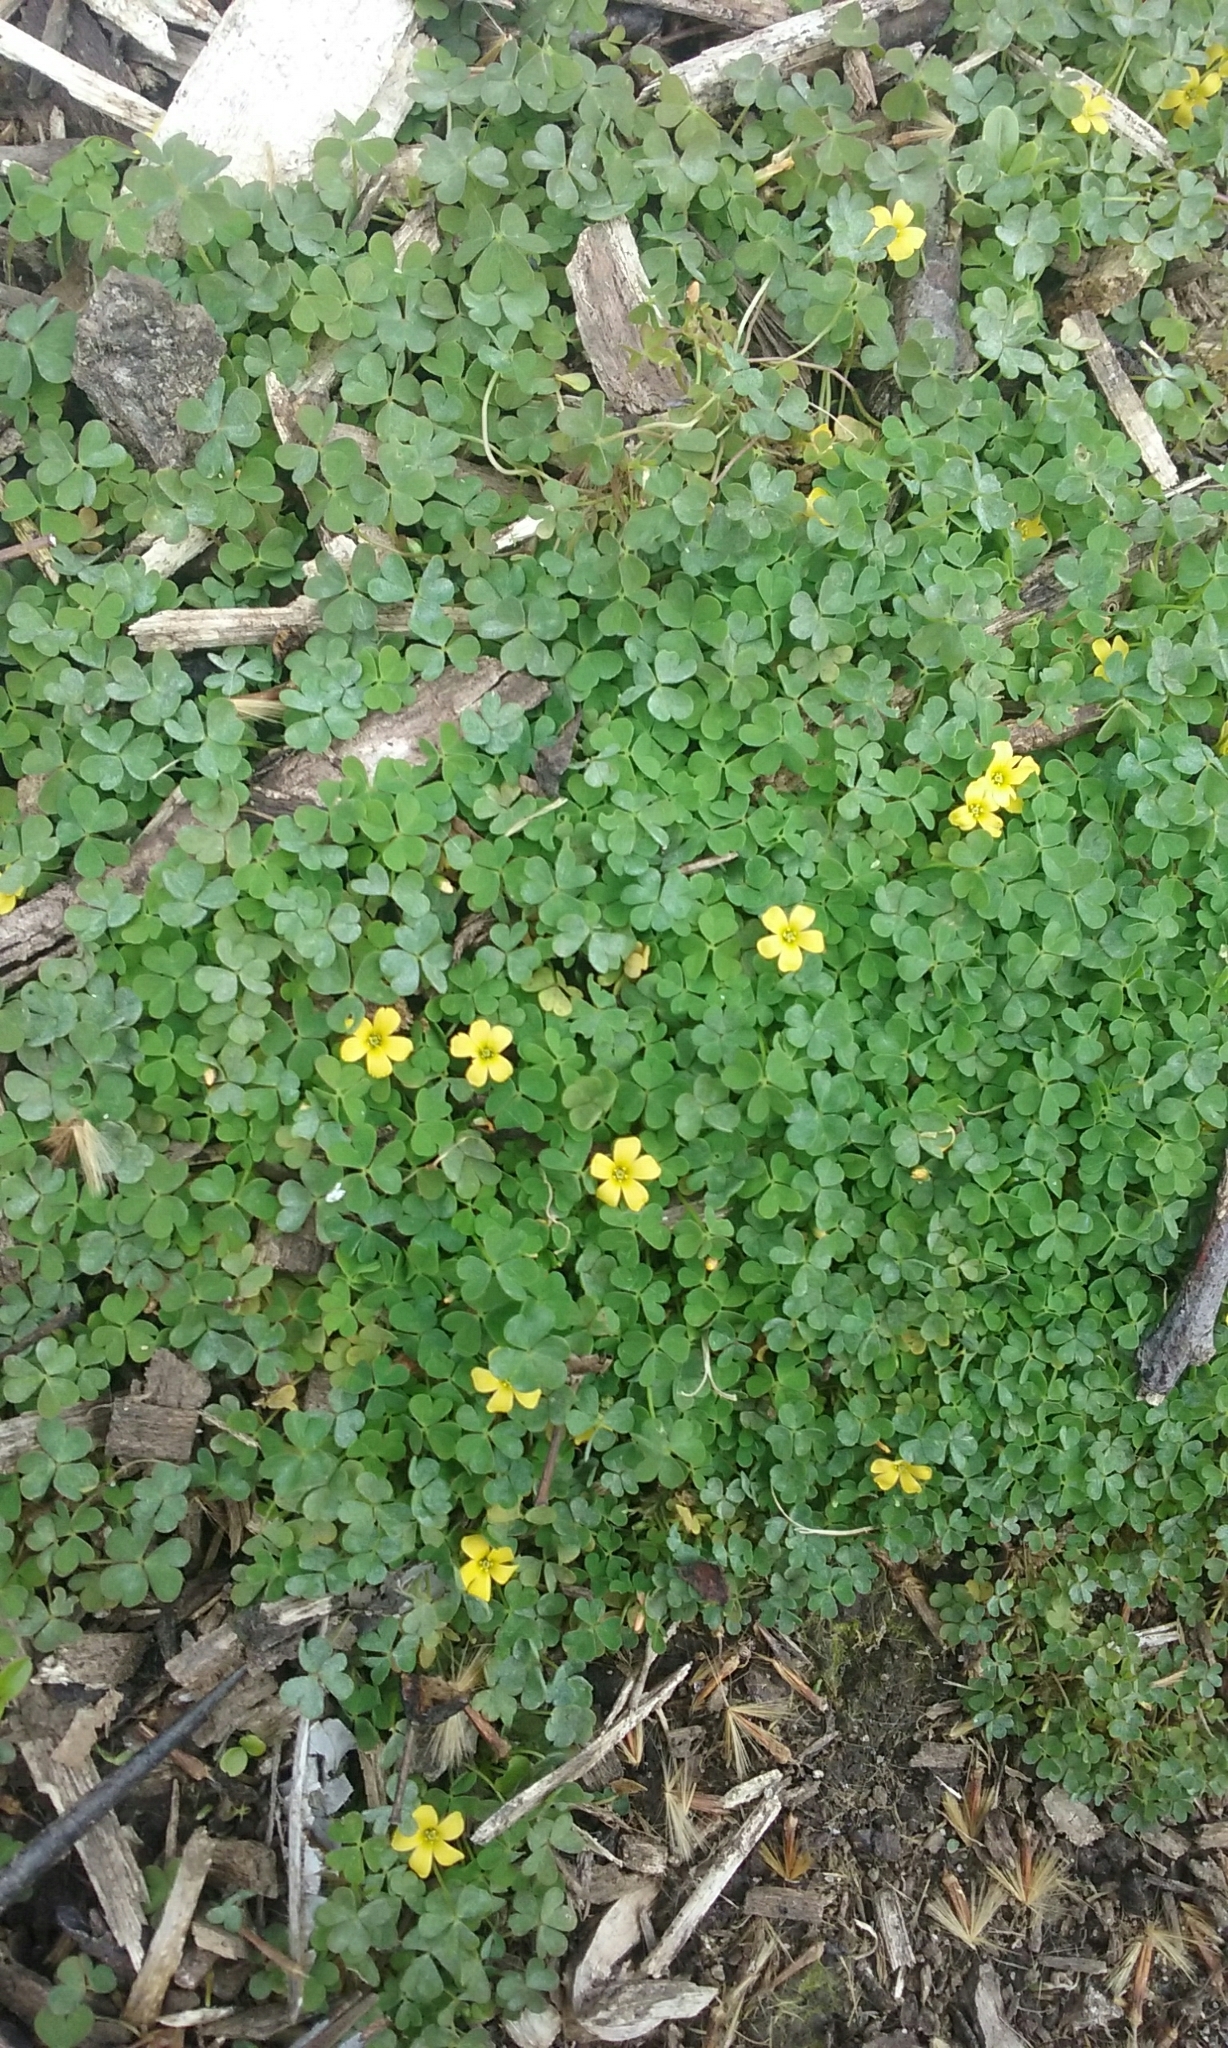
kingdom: Plantae
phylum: Tracheophyta
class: Magnoliopsida
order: Oxalidales
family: Oxalidaceae
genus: Oxalis
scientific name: Oxalis exilis
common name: Least yellow-sorrel
